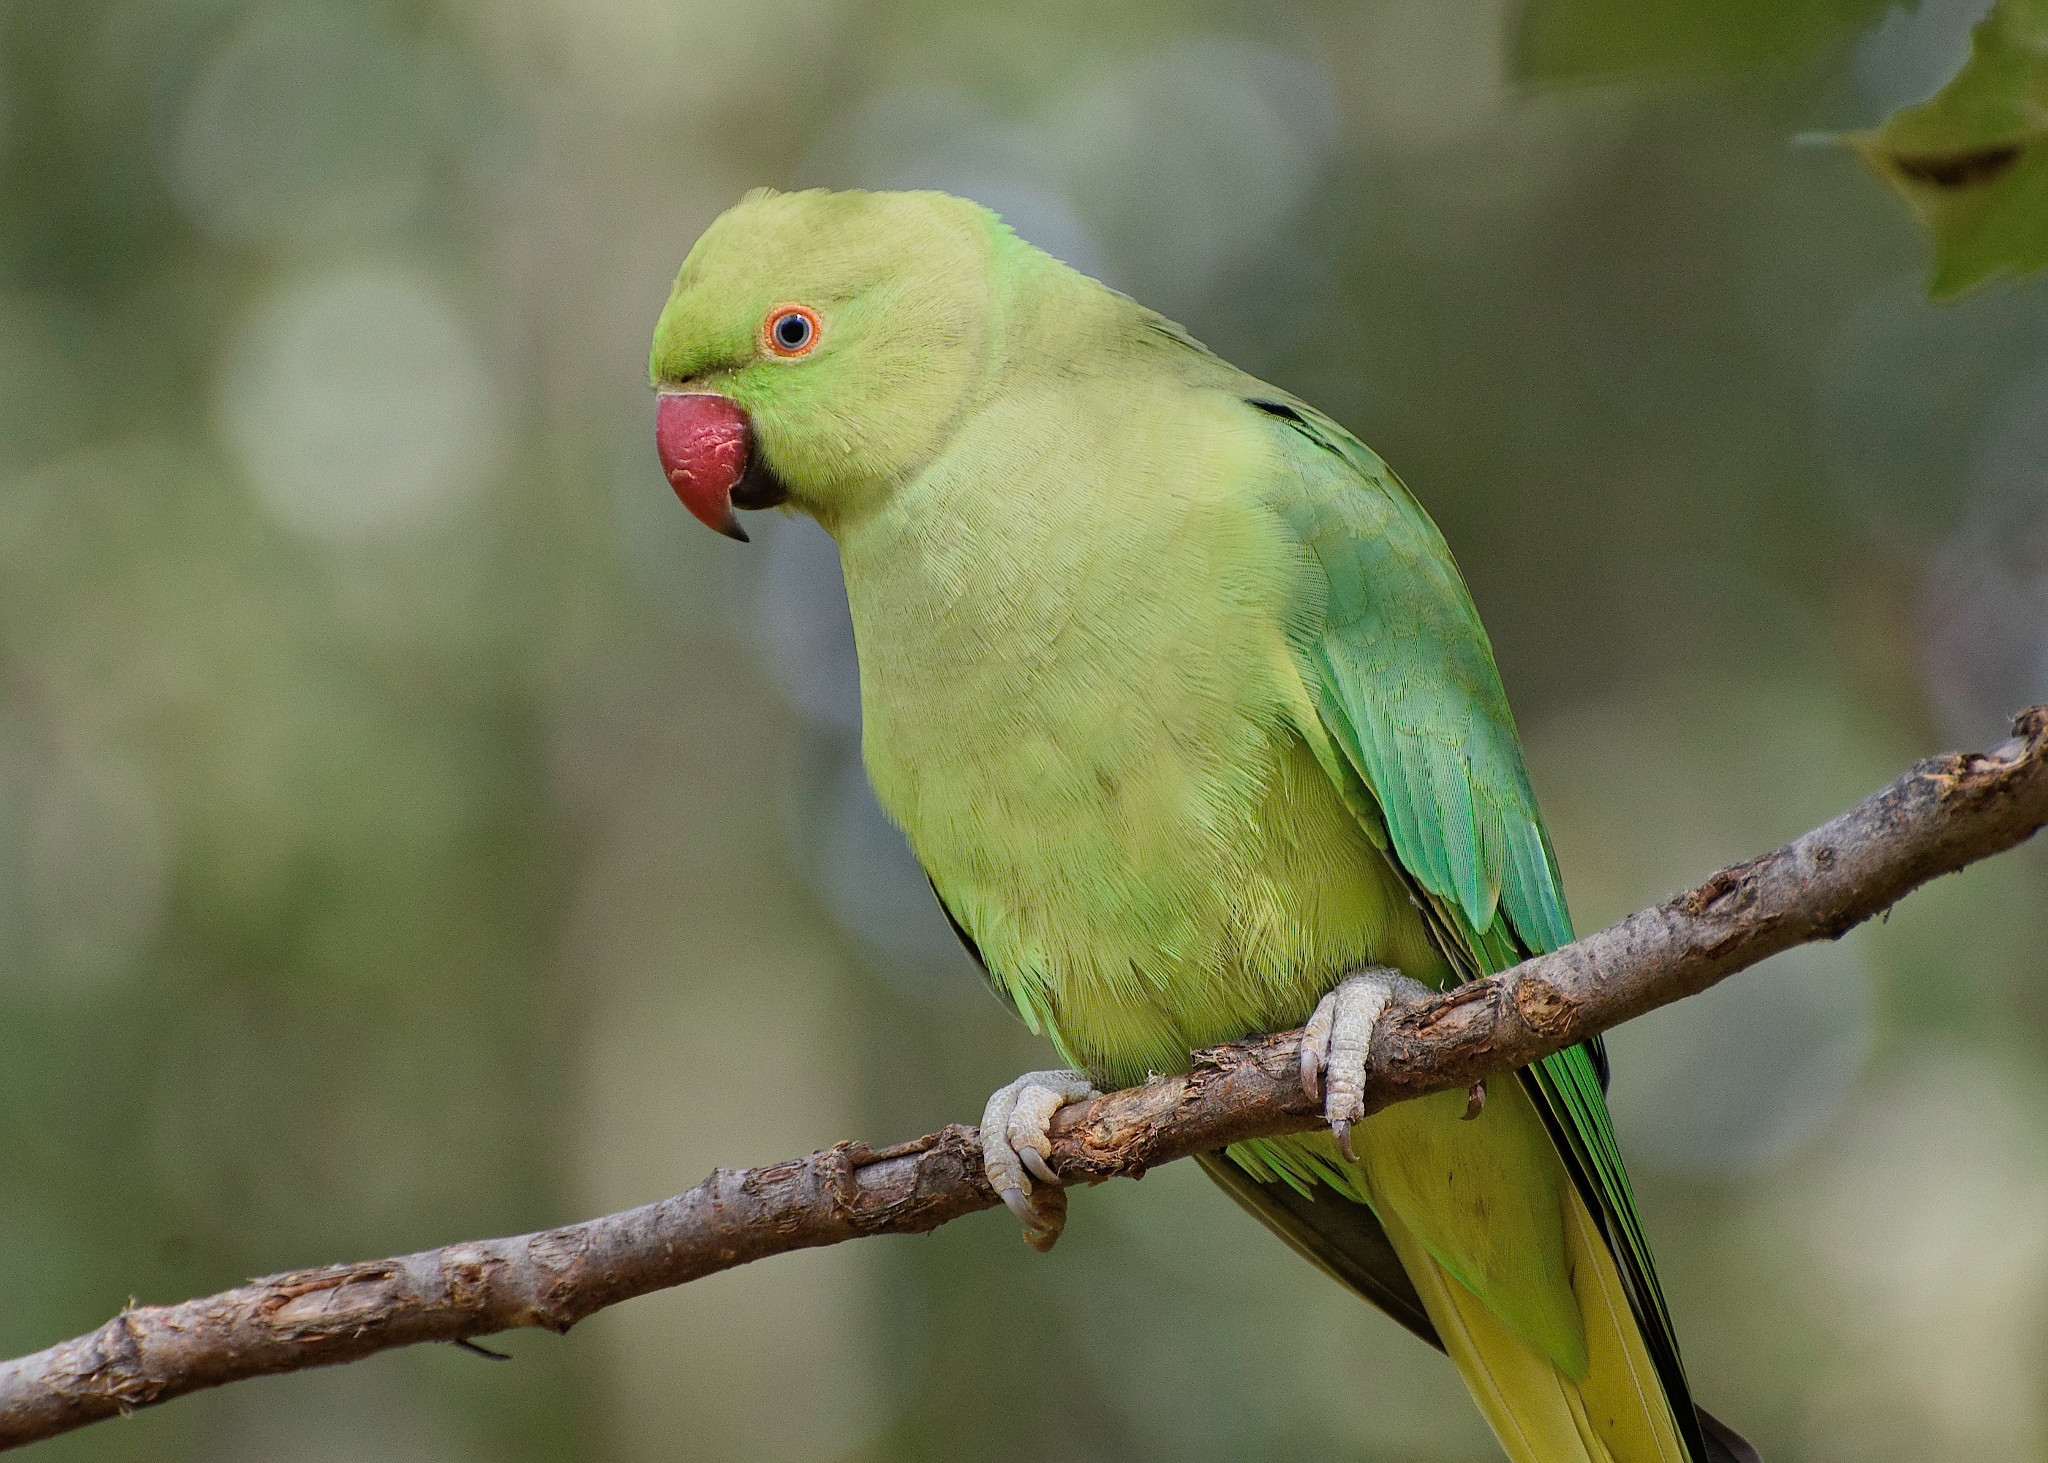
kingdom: Animalia
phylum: Chordata
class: Aves
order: Psittaciformes
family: Psittacidae
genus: Psittacula
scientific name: Psittacula krameri
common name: Rose-ringed parakeet
